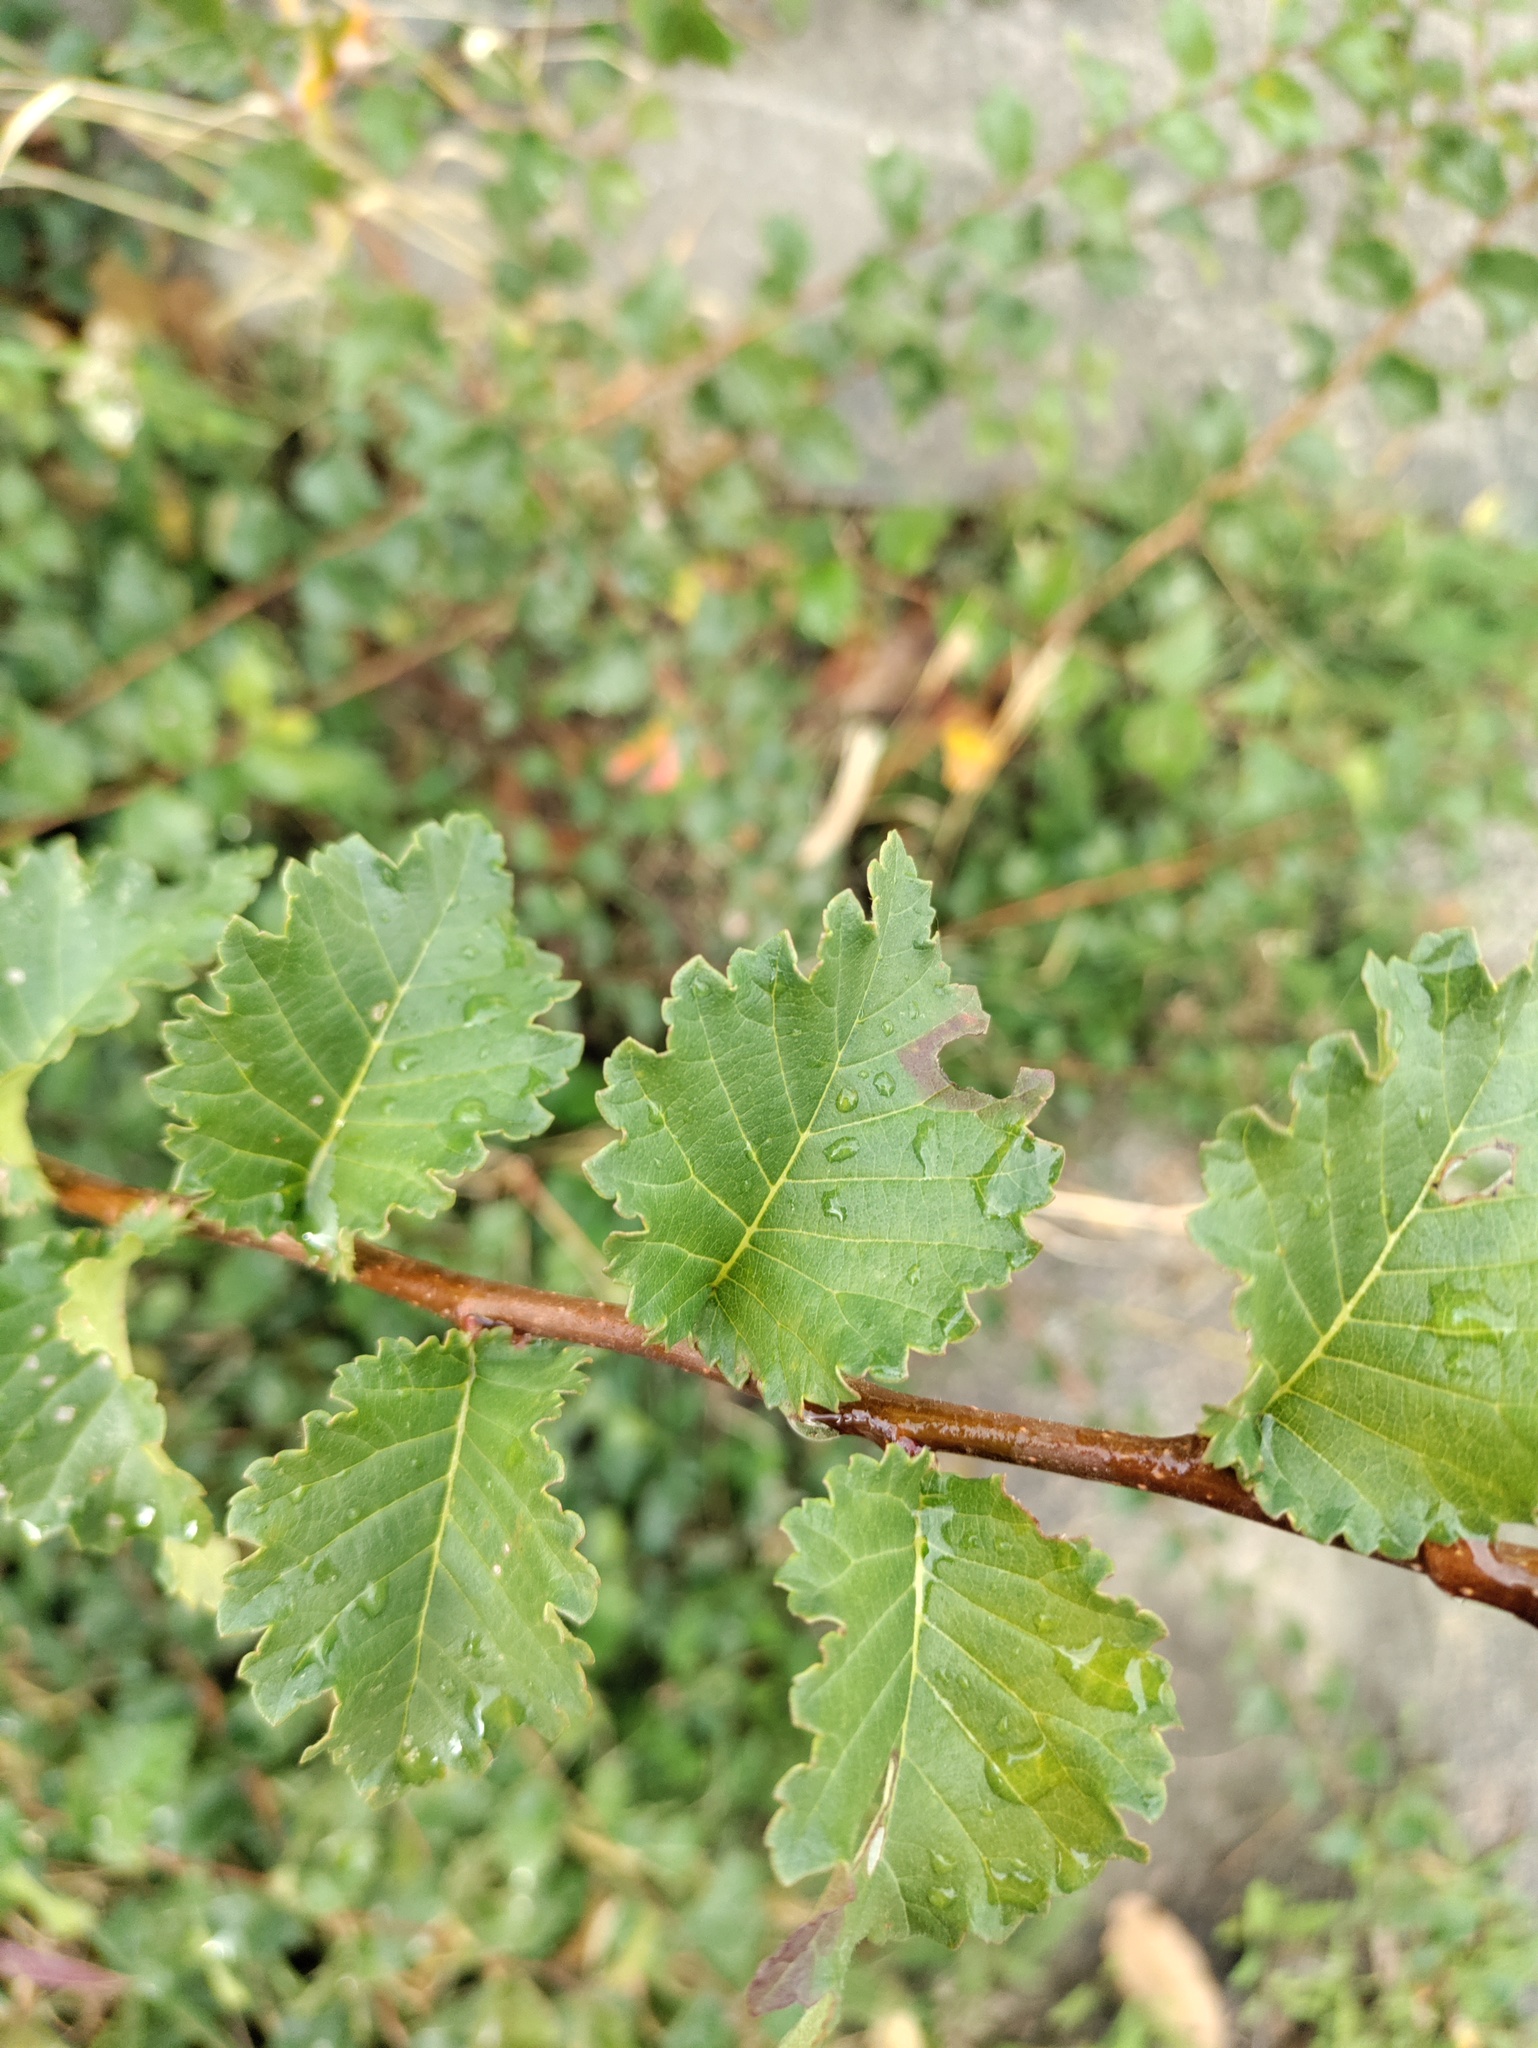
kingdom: Plantae
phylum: Tracheophyta
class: Magnoliopsida
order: Rosales
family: Ulmaceae
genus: Ulmus
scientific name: Ulmus minor
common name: Small-leaved elm
